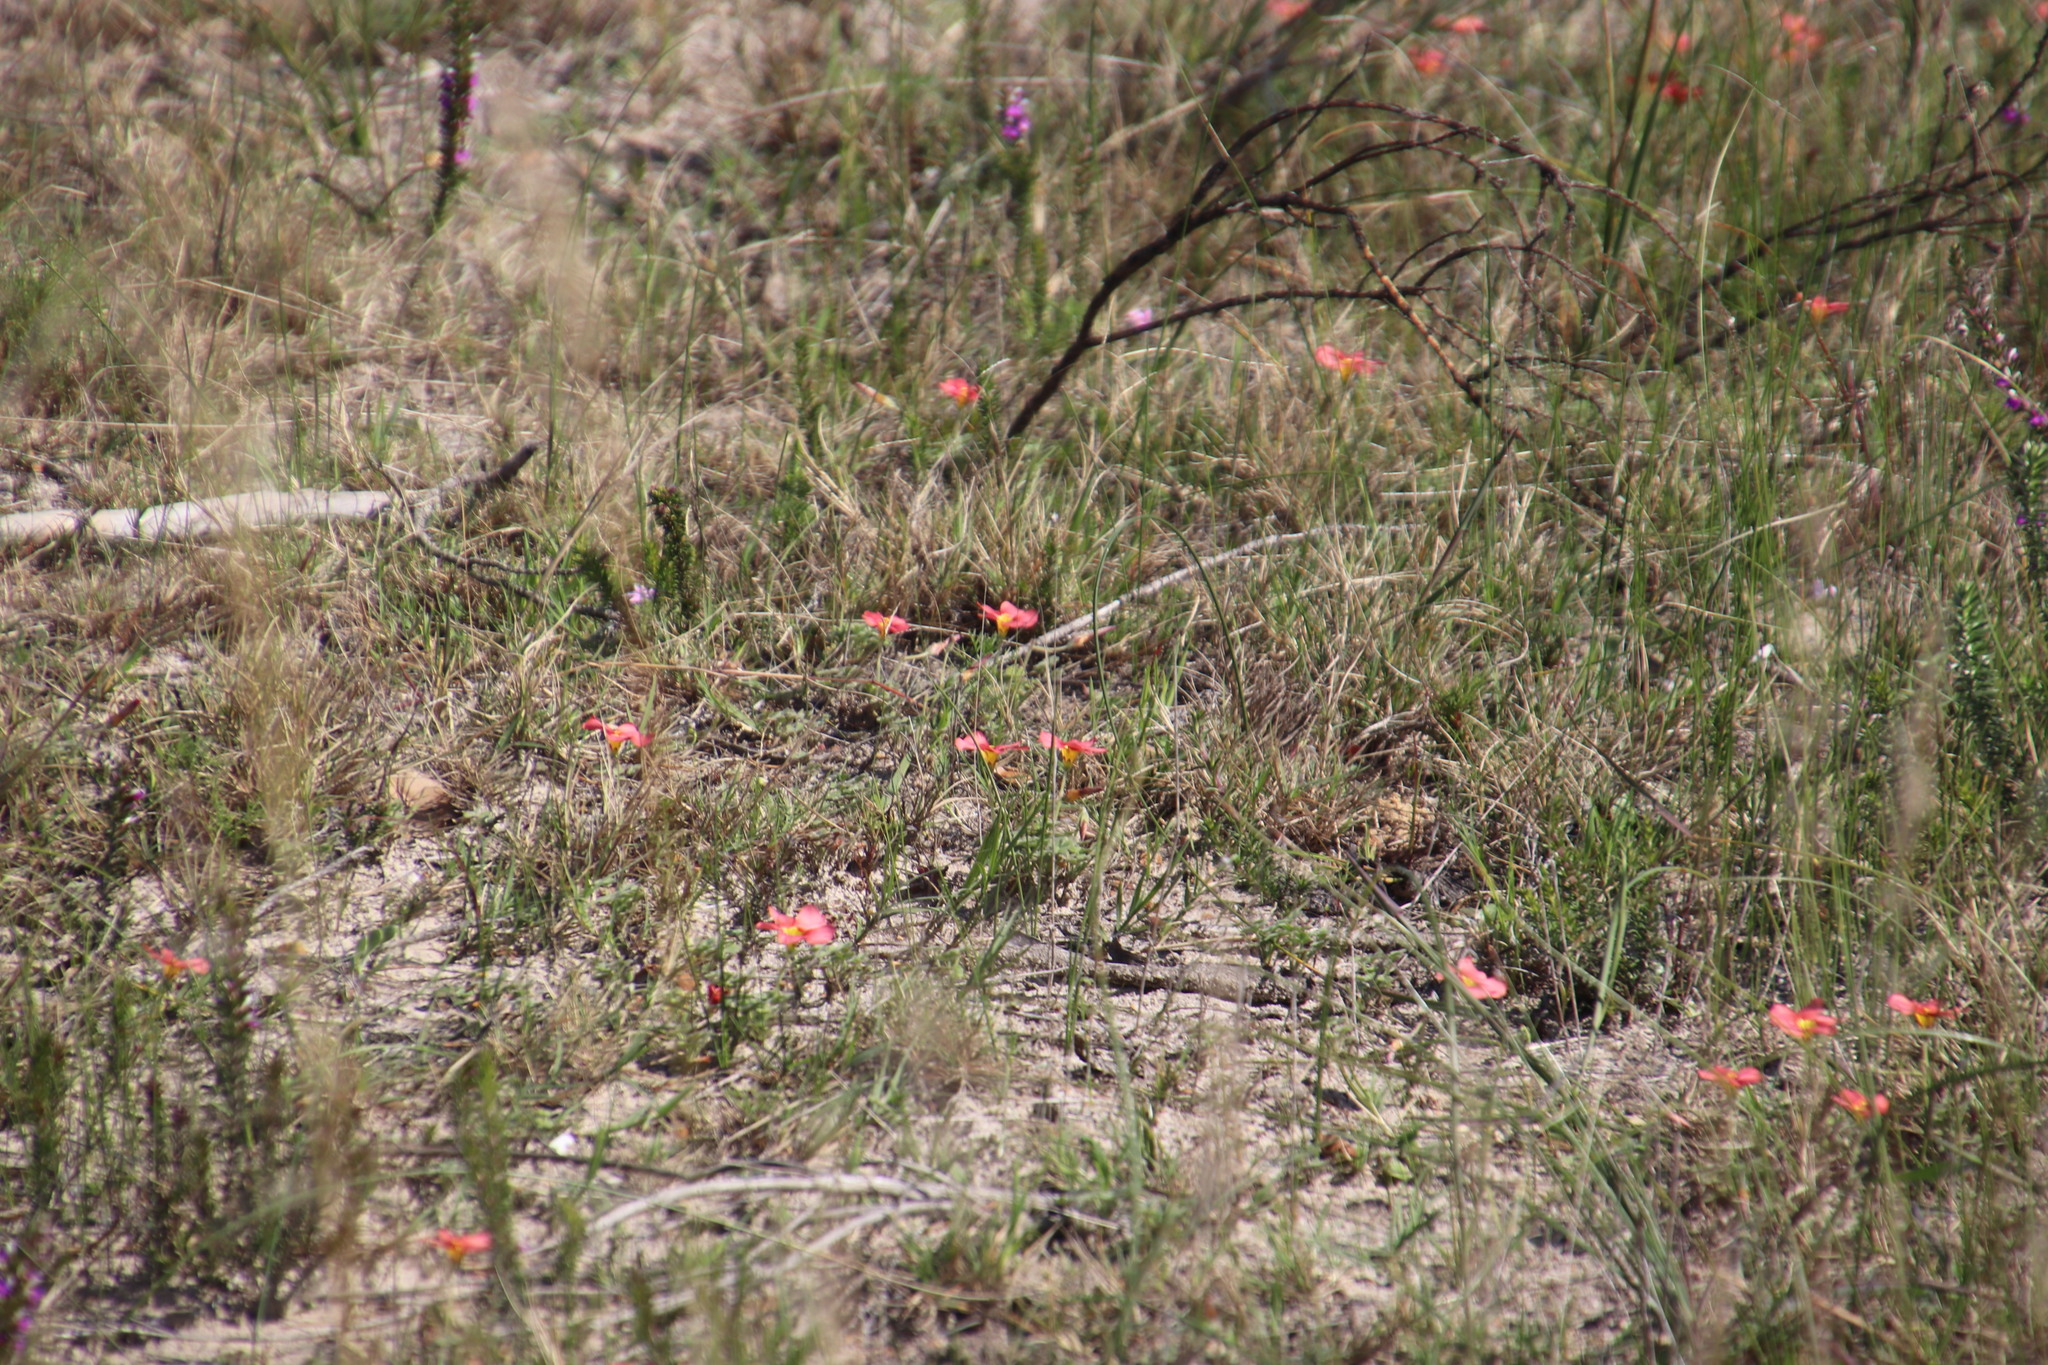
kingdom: Plantae
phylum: Tracheophyta
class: Magnoliopsida
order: Oxalidales
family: Oxalidaceae
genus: Oxalis
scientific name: Oxalis obtusa
